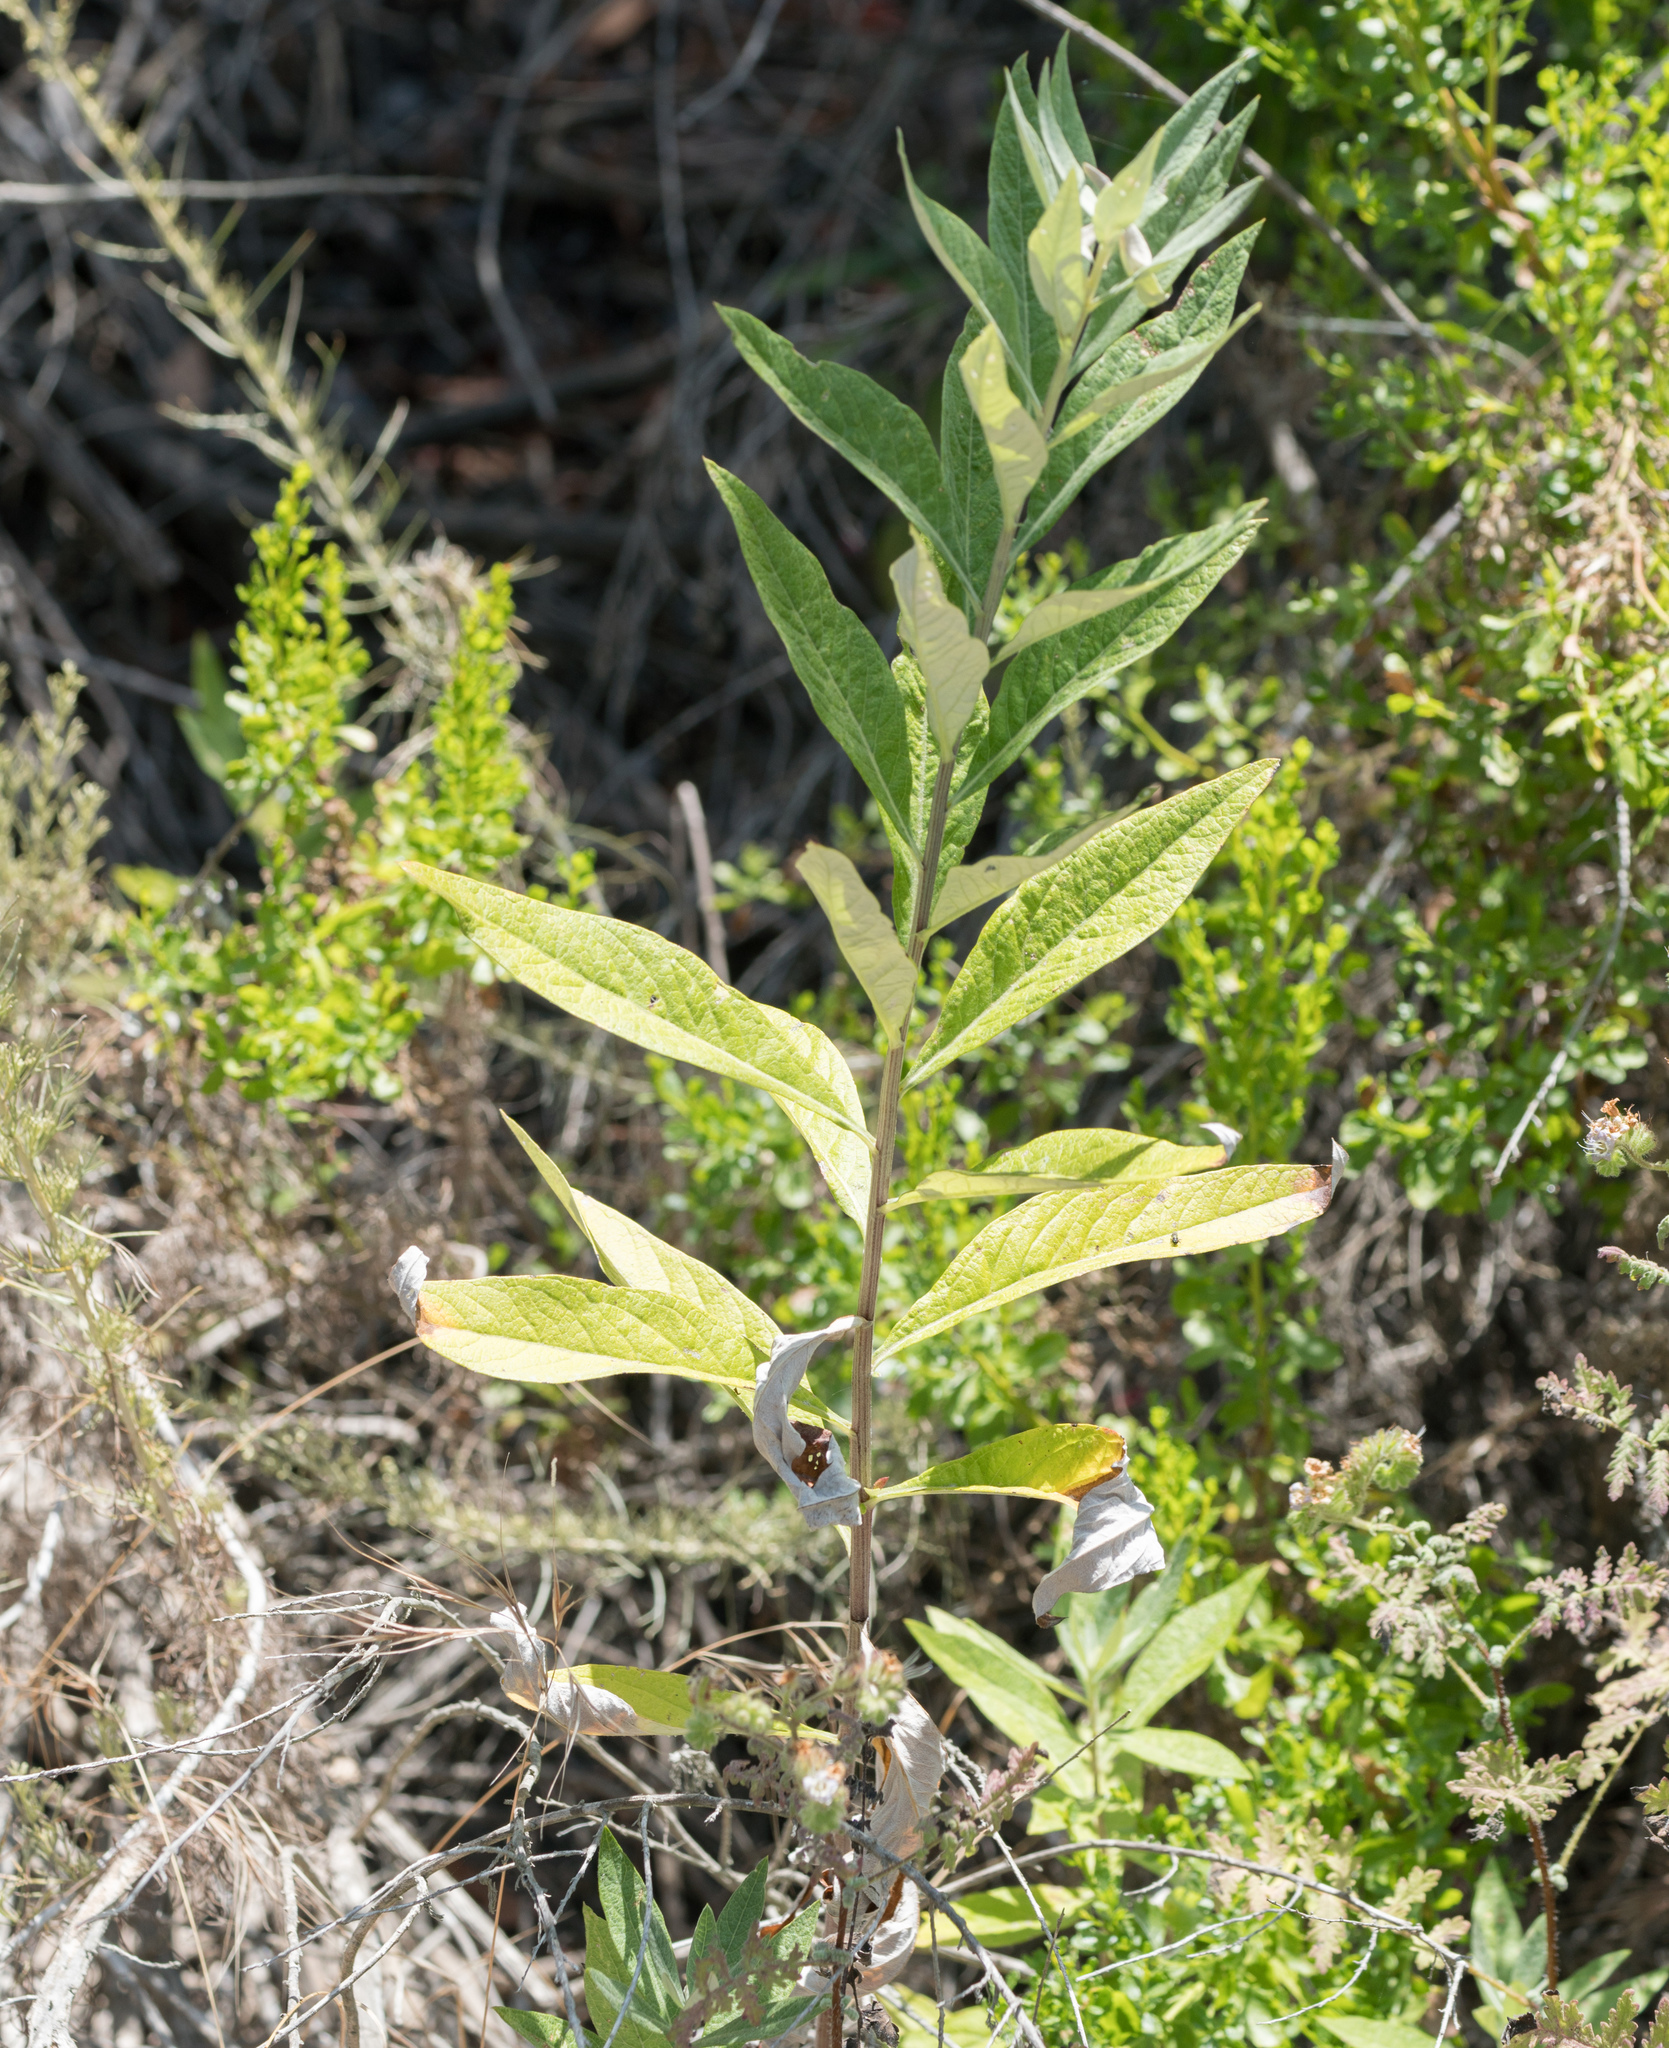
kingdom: Plantae
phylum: Tracheophyta
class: Magnoliopsida
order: Asterales
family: Asteraceae
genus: Artemisia
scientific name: Artemisia douglasiana
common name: Northwest mugwort
